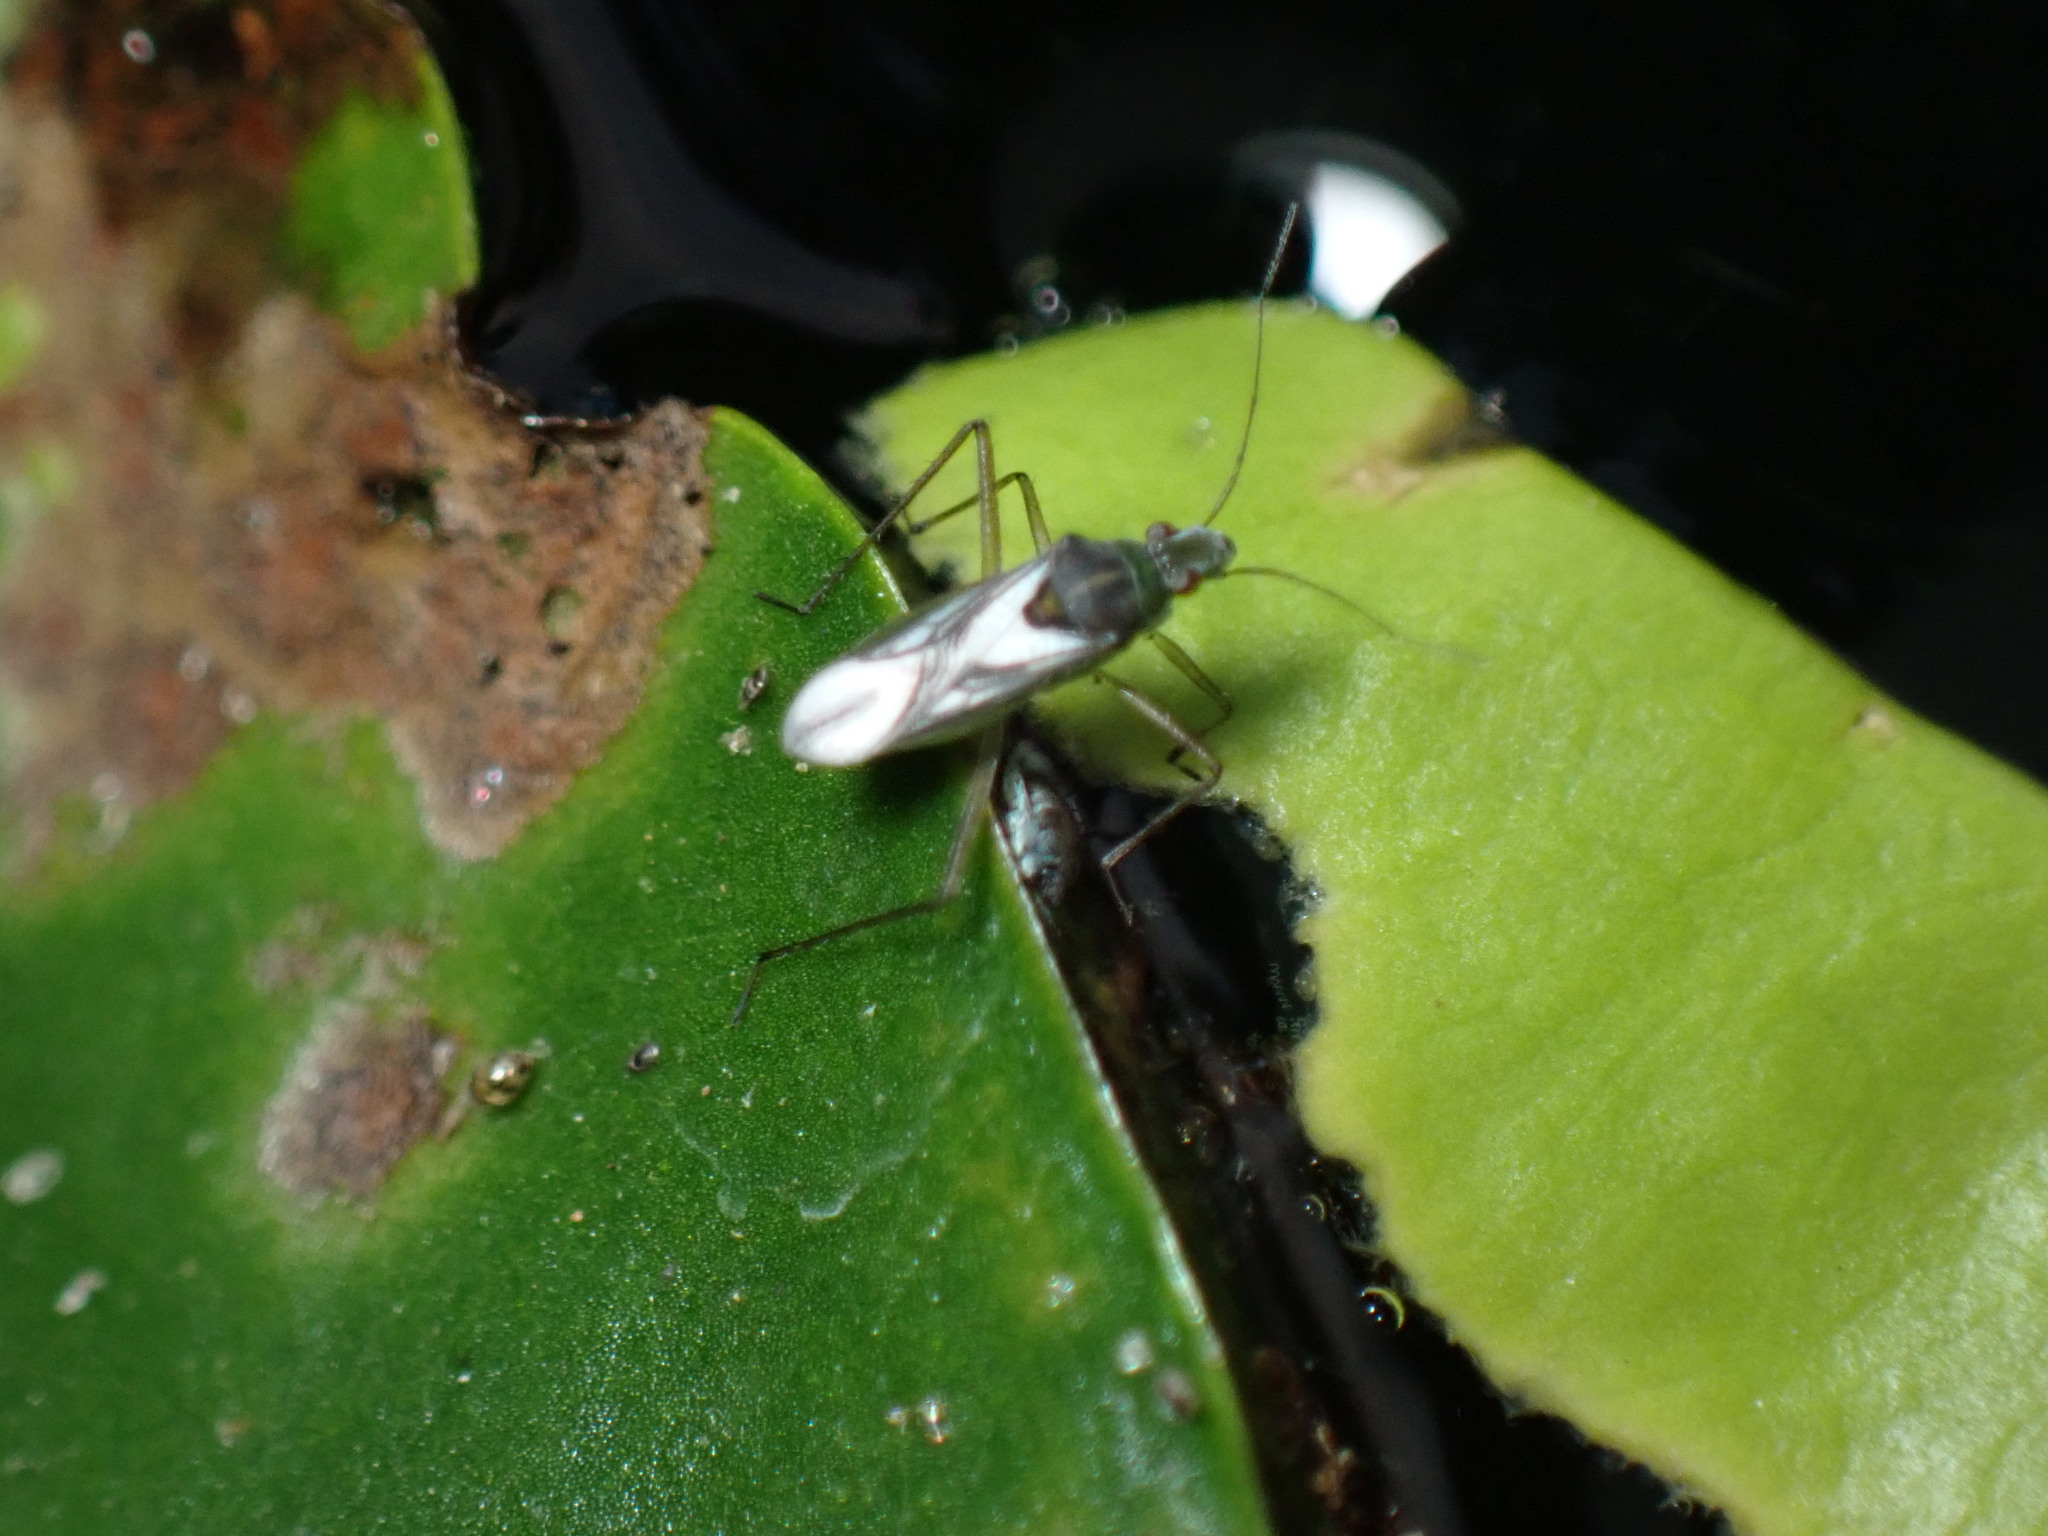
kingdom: Animalia
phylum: Arthropoda
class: Insecta
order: Hemiptera
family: Mesoveliidae
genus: Mesovelia
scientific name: Mesovelia mulsanti
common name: Water treaders
